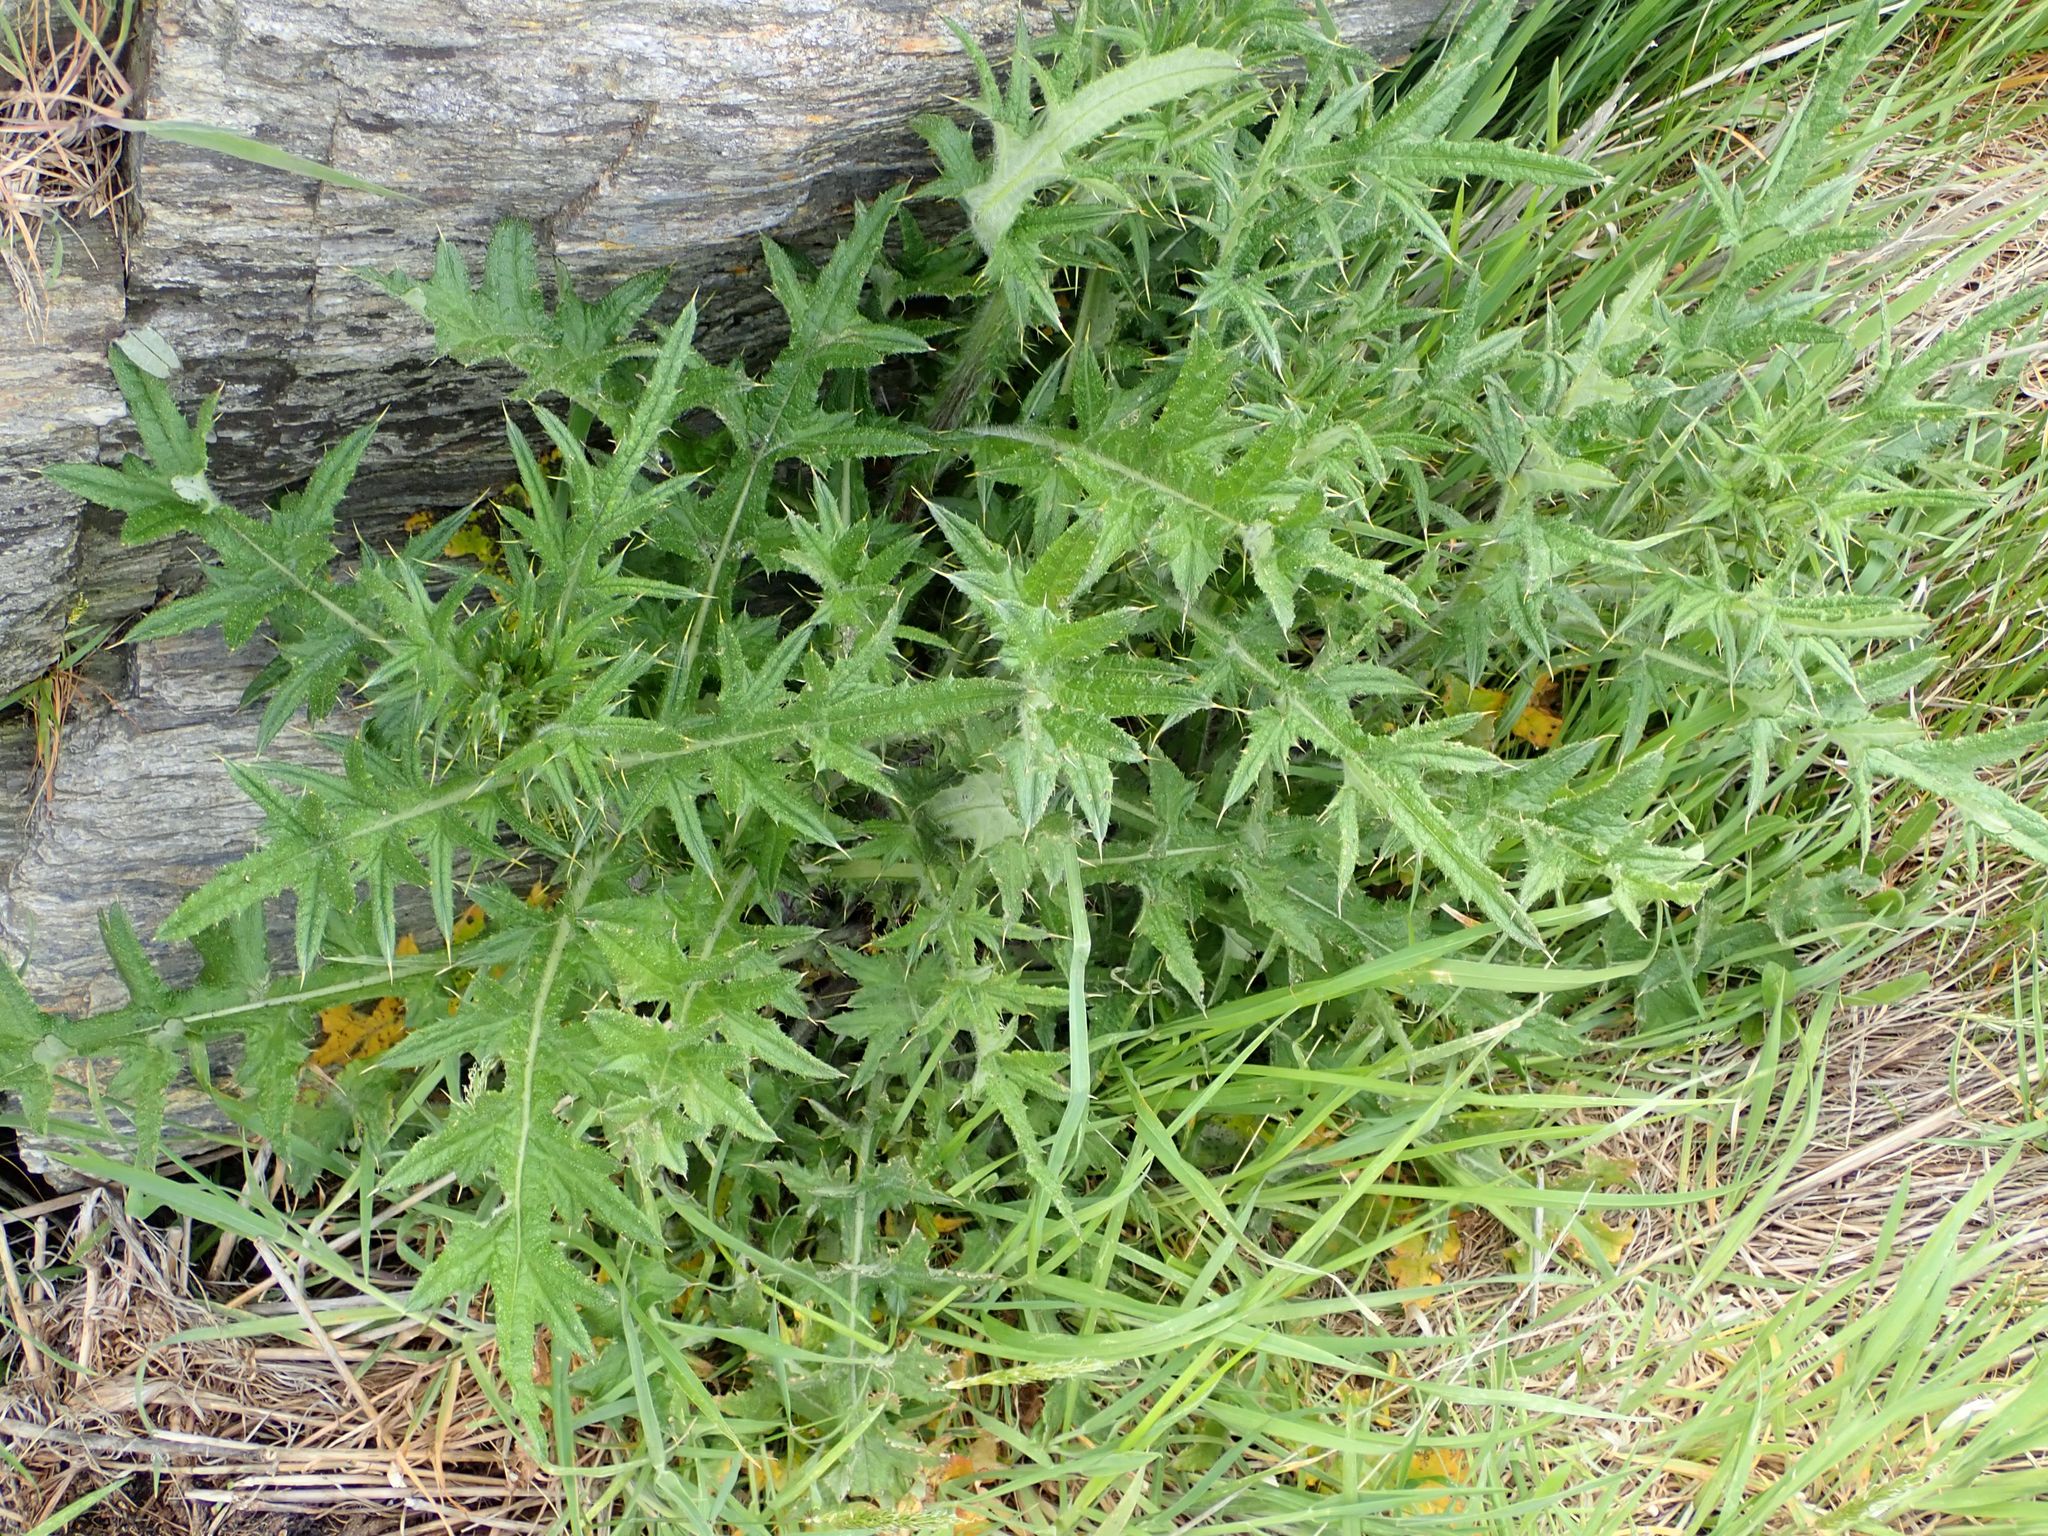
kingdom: Plantae
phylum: Tracheophyta
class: Magnoliopsida
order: Asterales
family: Asteraceae
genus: Cirsium
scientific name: Cirsium vulgare
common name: Bull thistle
